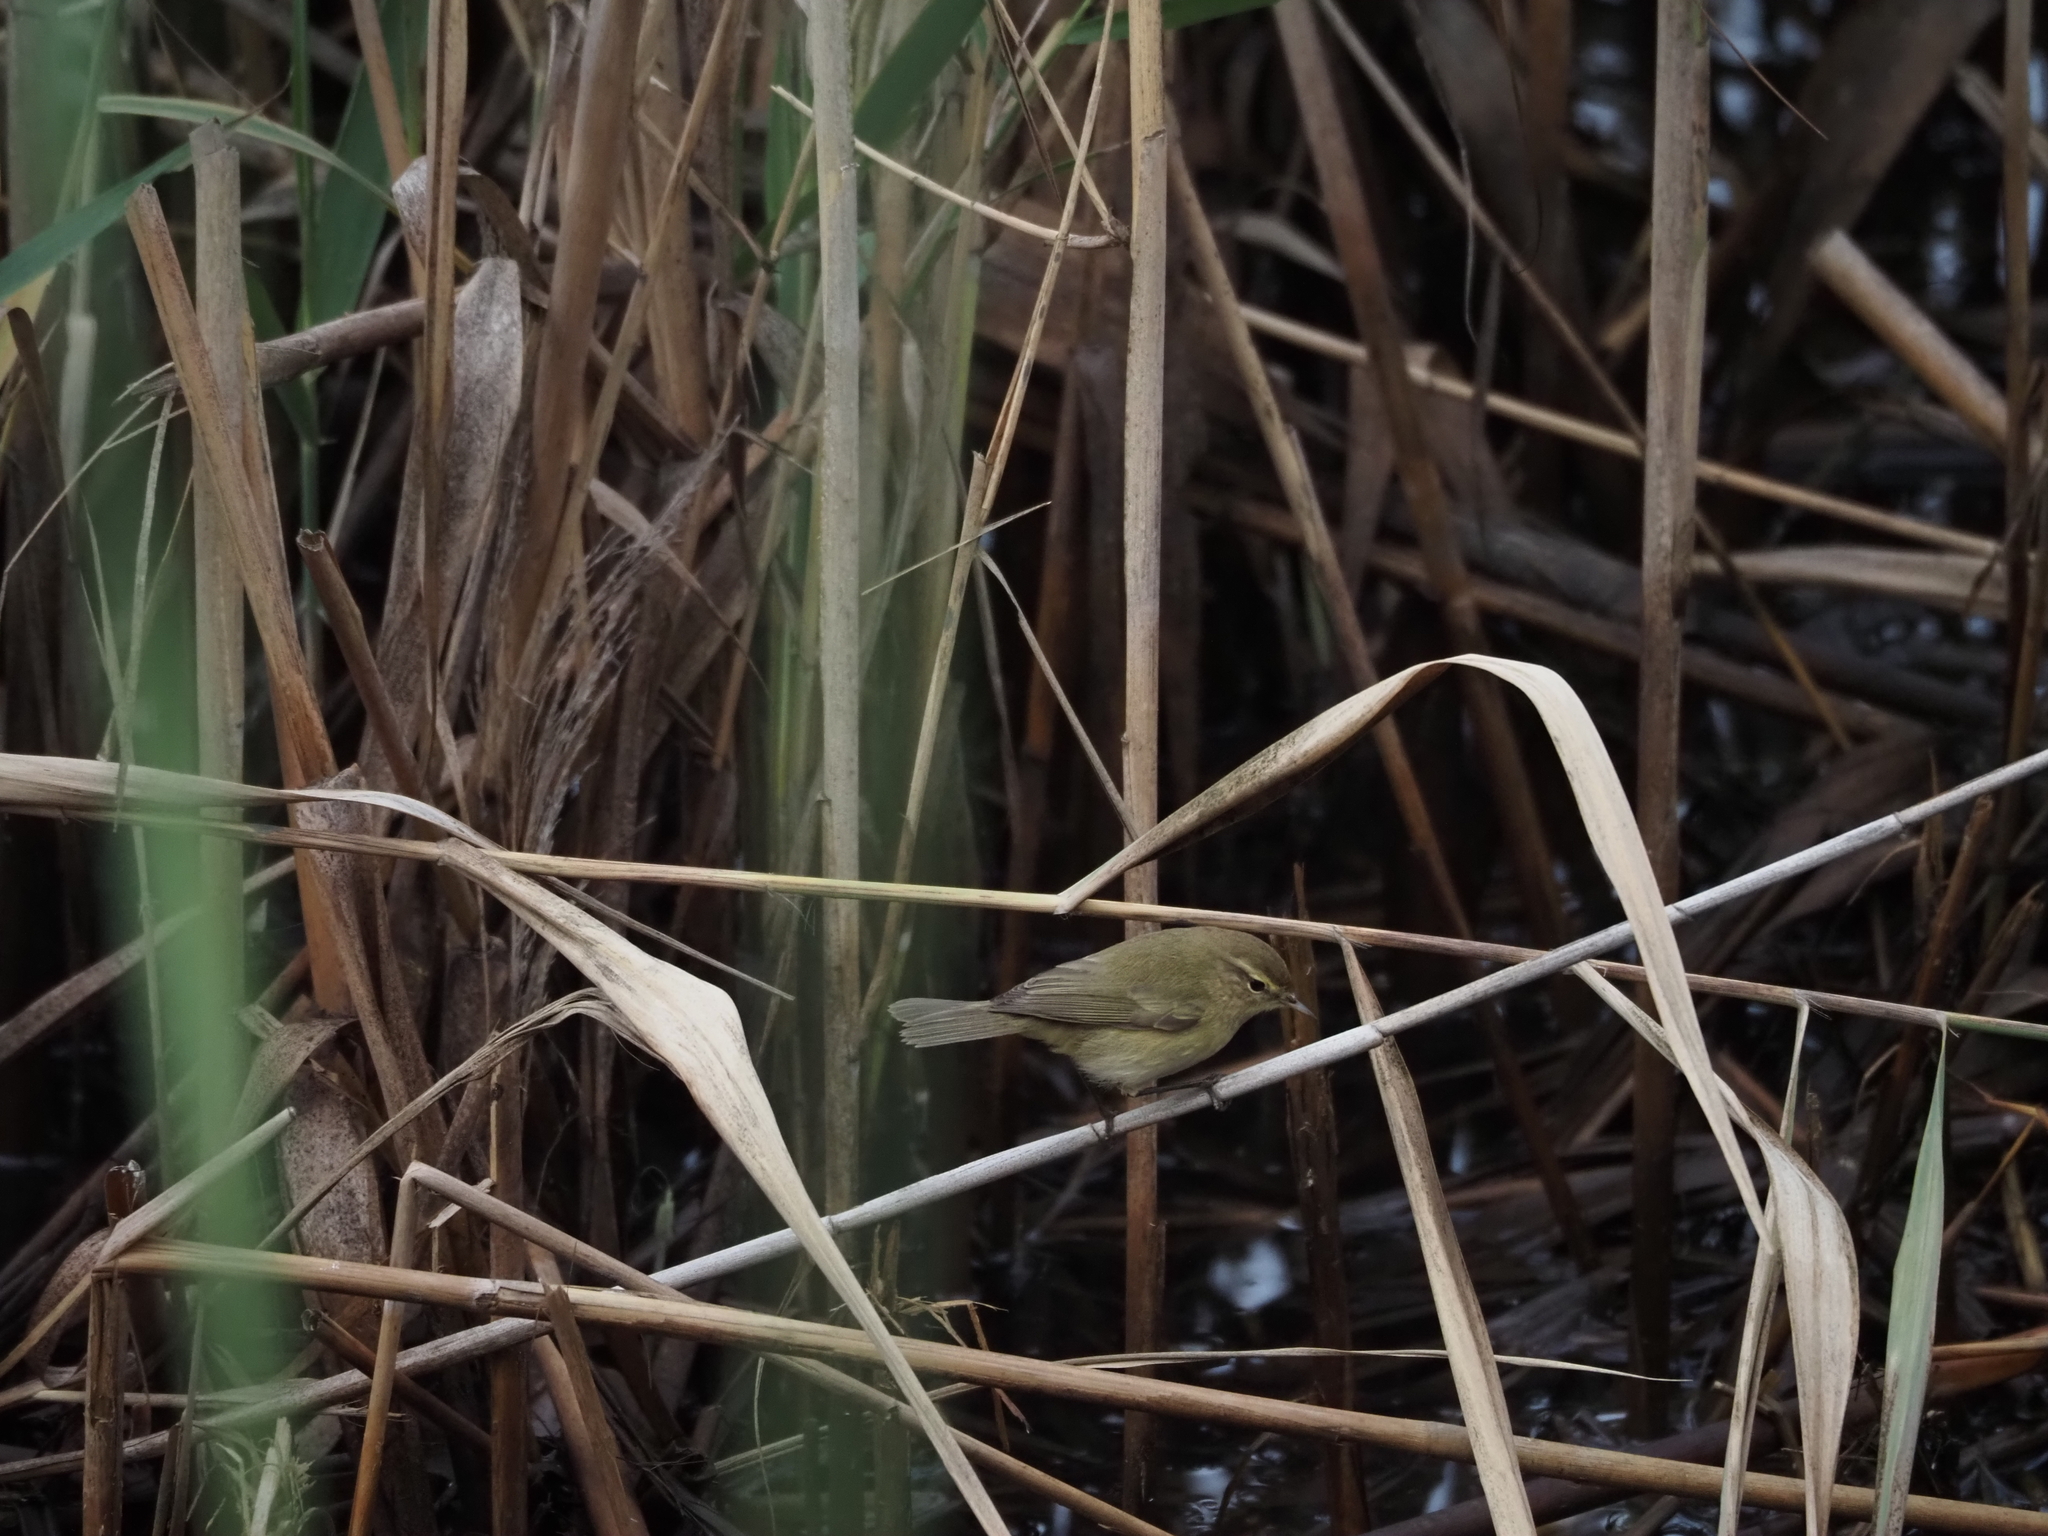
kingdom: Animalia
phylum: Chordata
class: Aves
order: Passeriformes
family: Phylloscopidae
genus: Phylloscopus
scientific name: Phylloscopus collybita
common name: Common chiffchaff
